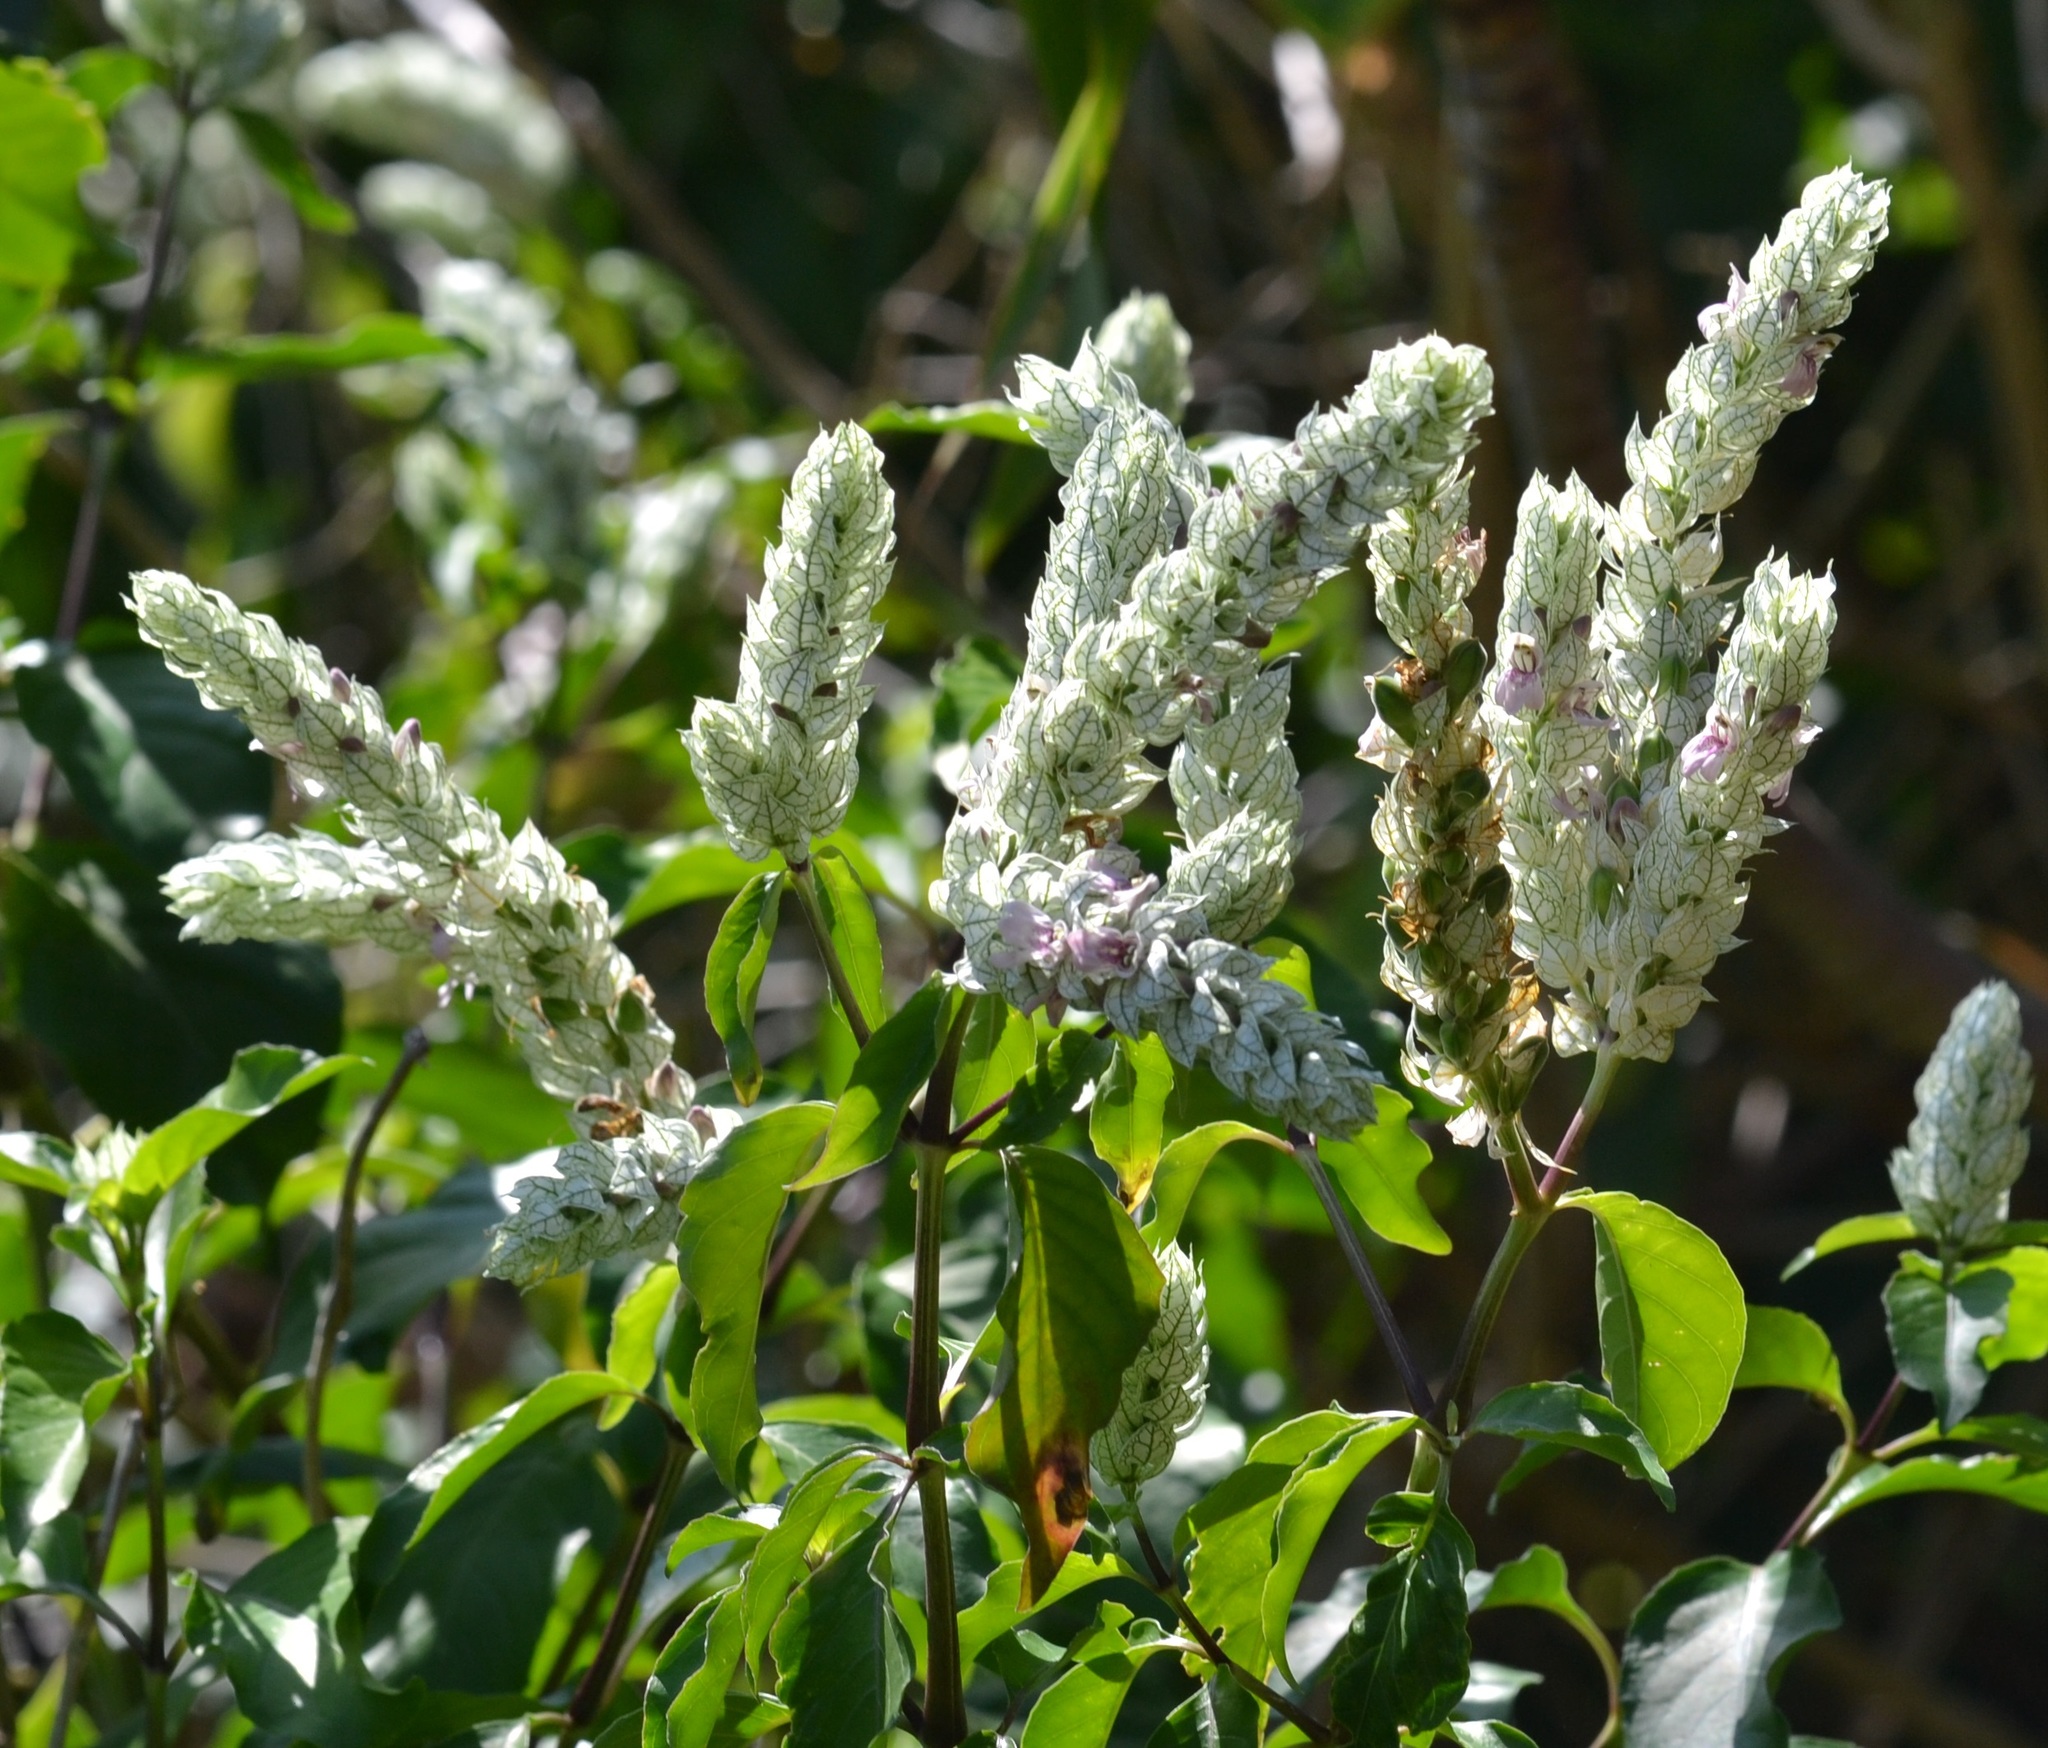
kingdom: Plantae
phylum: Tracheophyta
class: Magnoliopsida
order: Lamiales
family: Acanthaceae
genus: Justicia
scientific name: Justicia betonica
